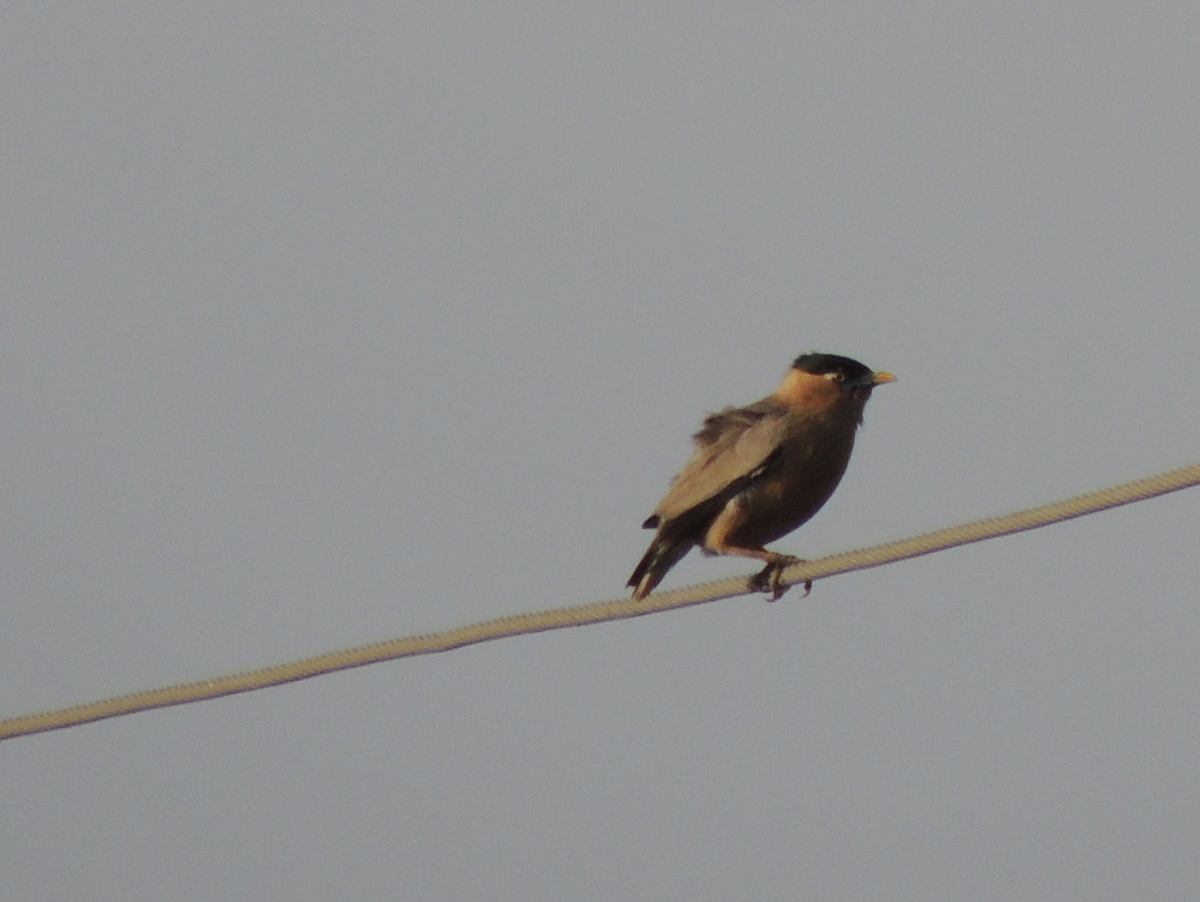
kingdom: Animalia
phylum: Chordata
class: Aves
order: Passeriformes
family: Sturnidae
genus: Sturnia
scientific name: Sturnia pagodarum
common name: Brahminy starling
